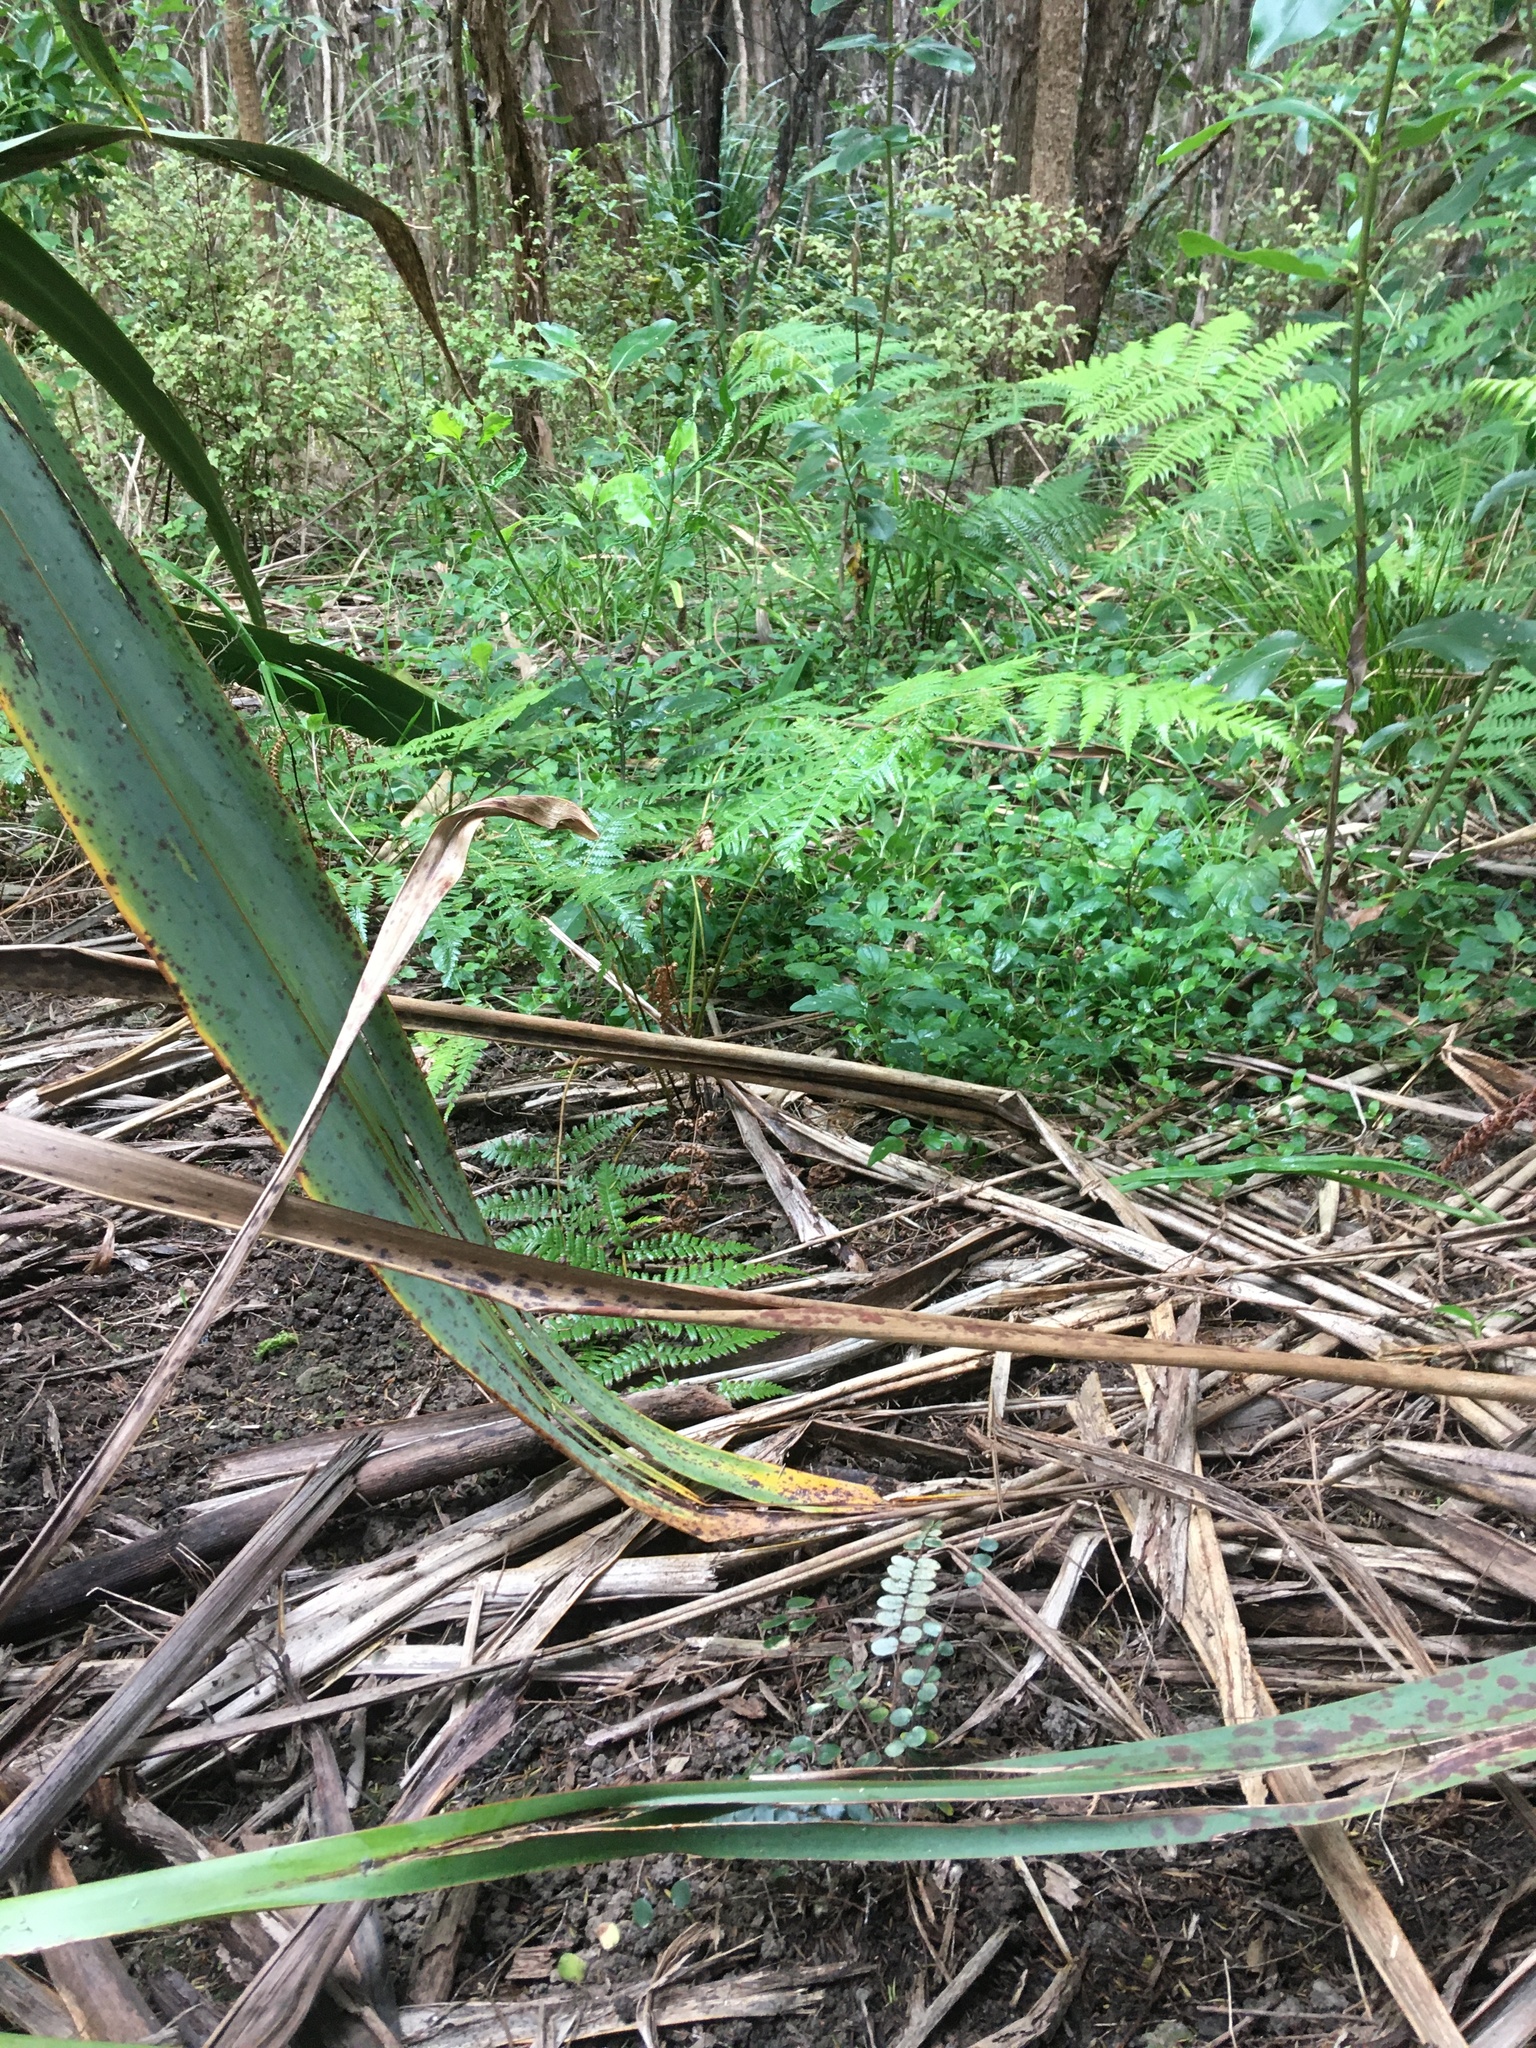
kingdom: Plantae
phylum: Tracheophyta
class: Polypodiopsida
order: Polypodiales
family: Pteridaceae
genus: Pellaea
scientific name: Pellaea rotundifolia
